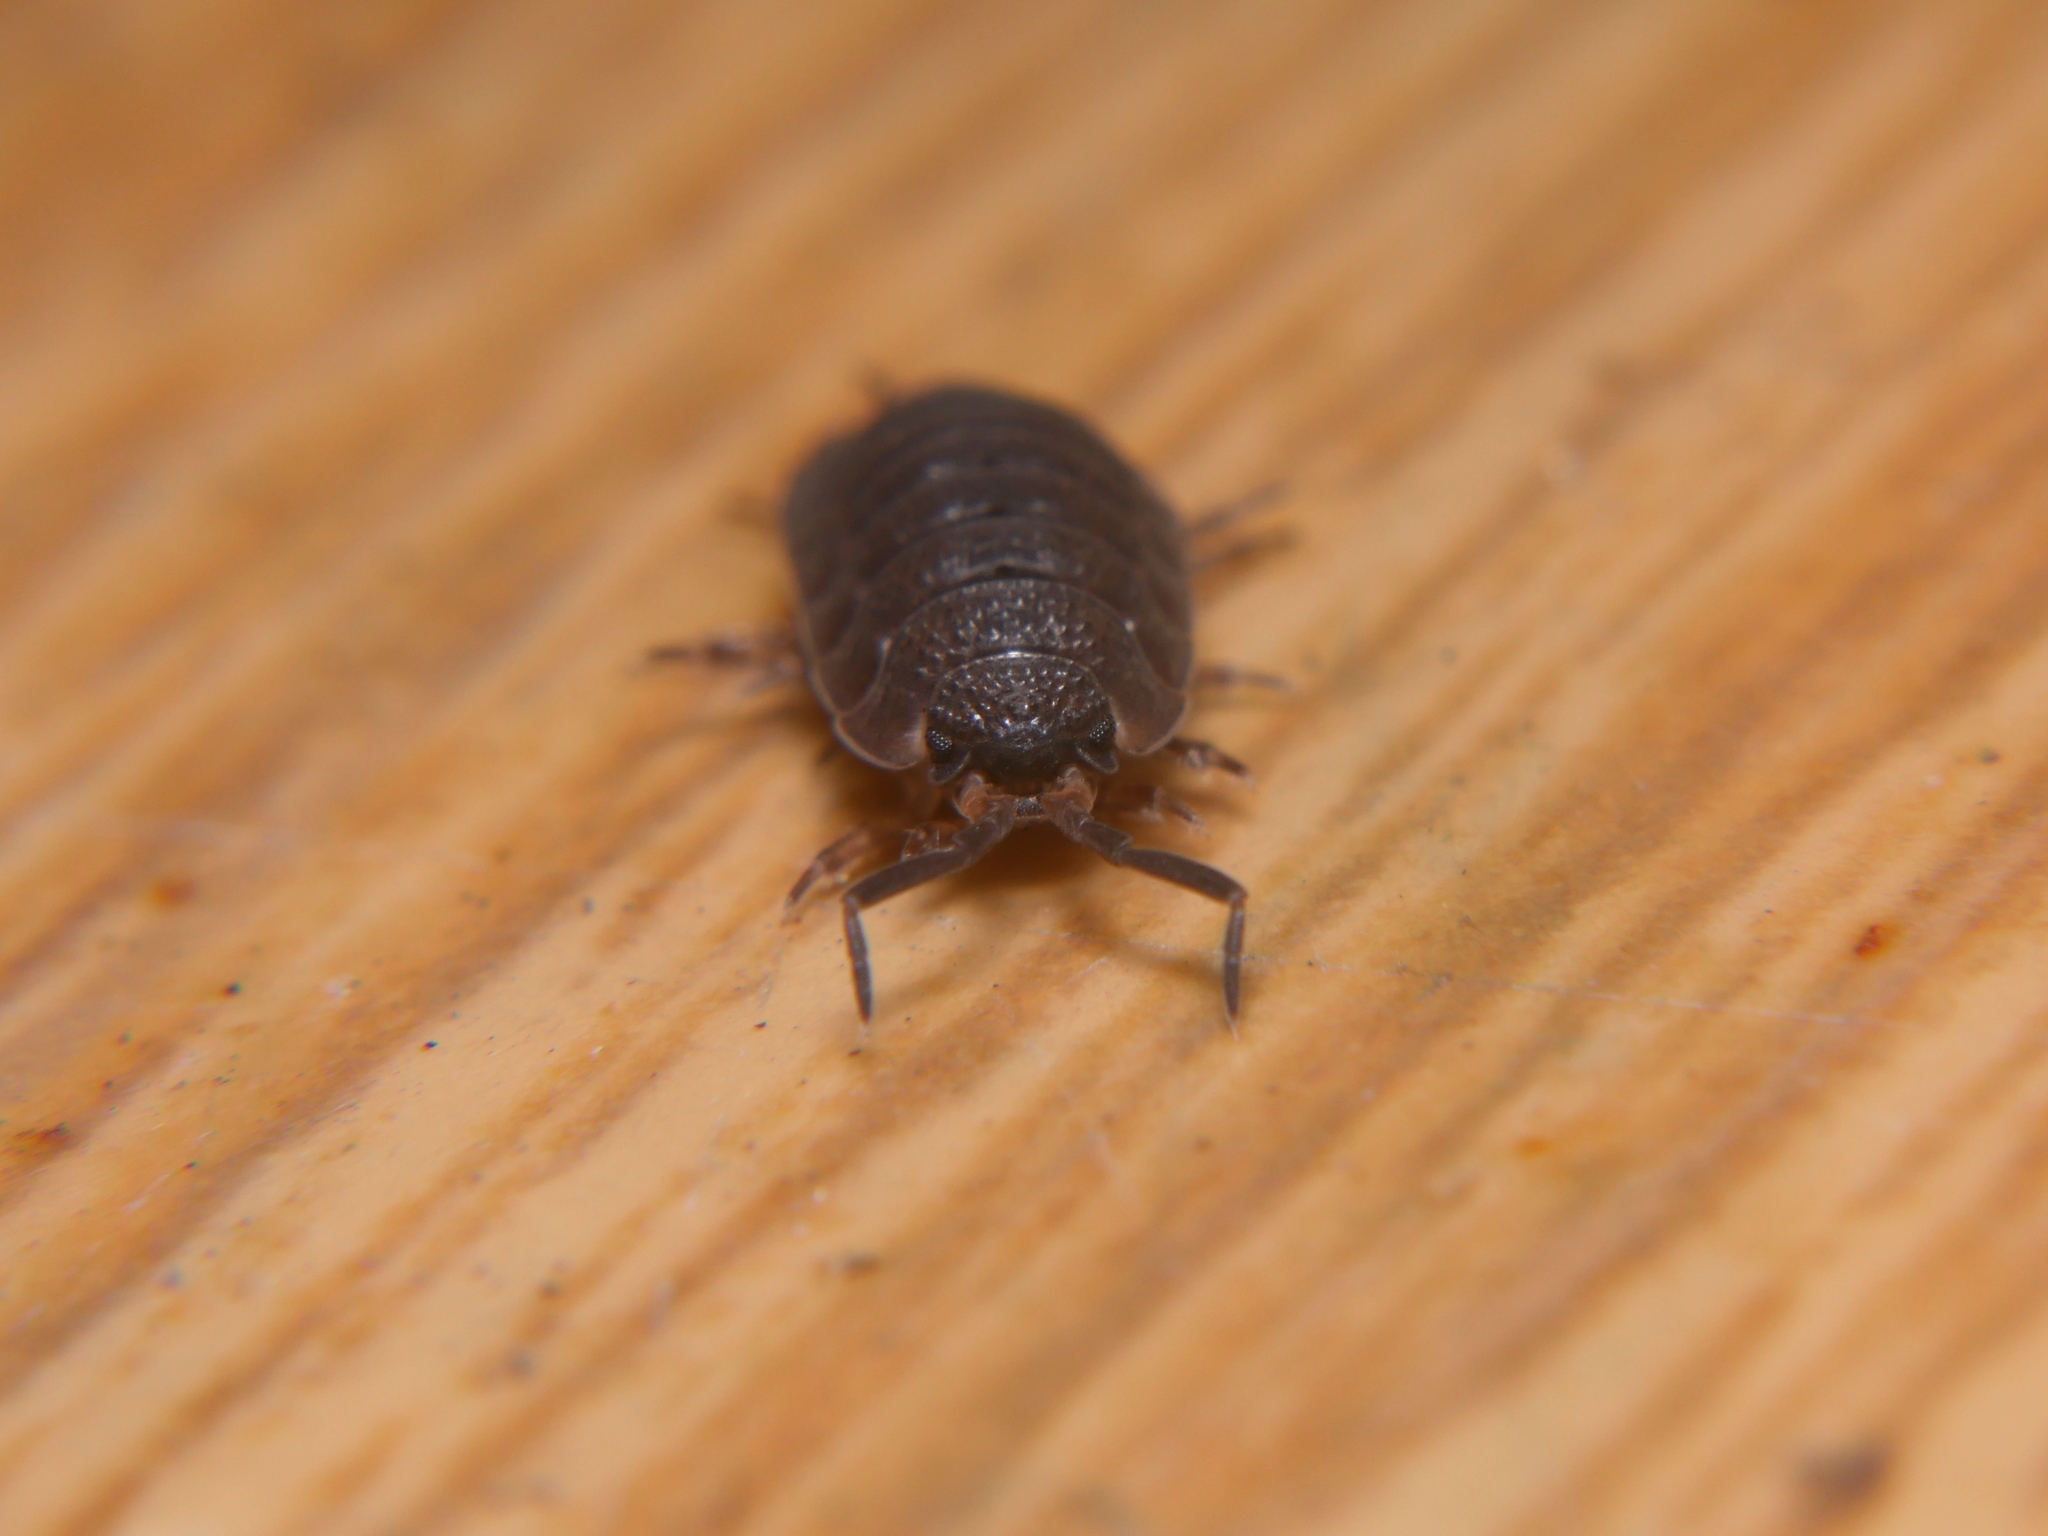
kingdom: Animalia
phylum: Arthropoda
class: Malacostraca
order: Isopoda
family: Porcellionidae
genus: Porcellio
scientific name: Porcellio scaber
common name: Common rough woodlouse
